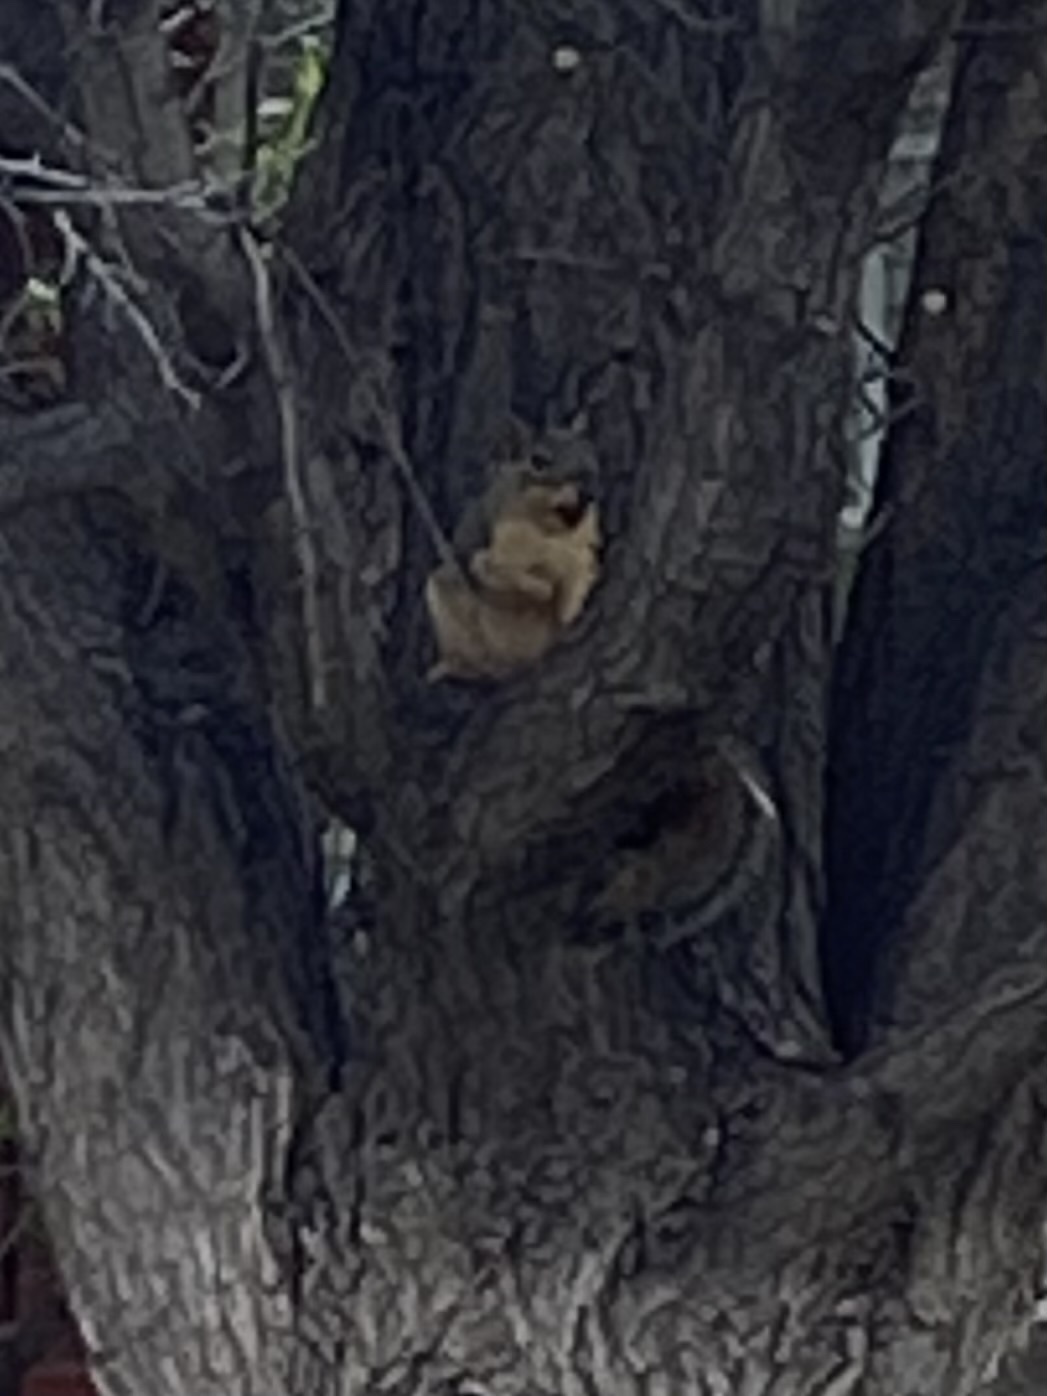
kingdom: Animalia
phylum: Chordata
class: Mammalia
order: Rodentia
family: Sciuridae
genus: Sciurus
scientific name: Sciurus niger
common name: Fox squirrel
